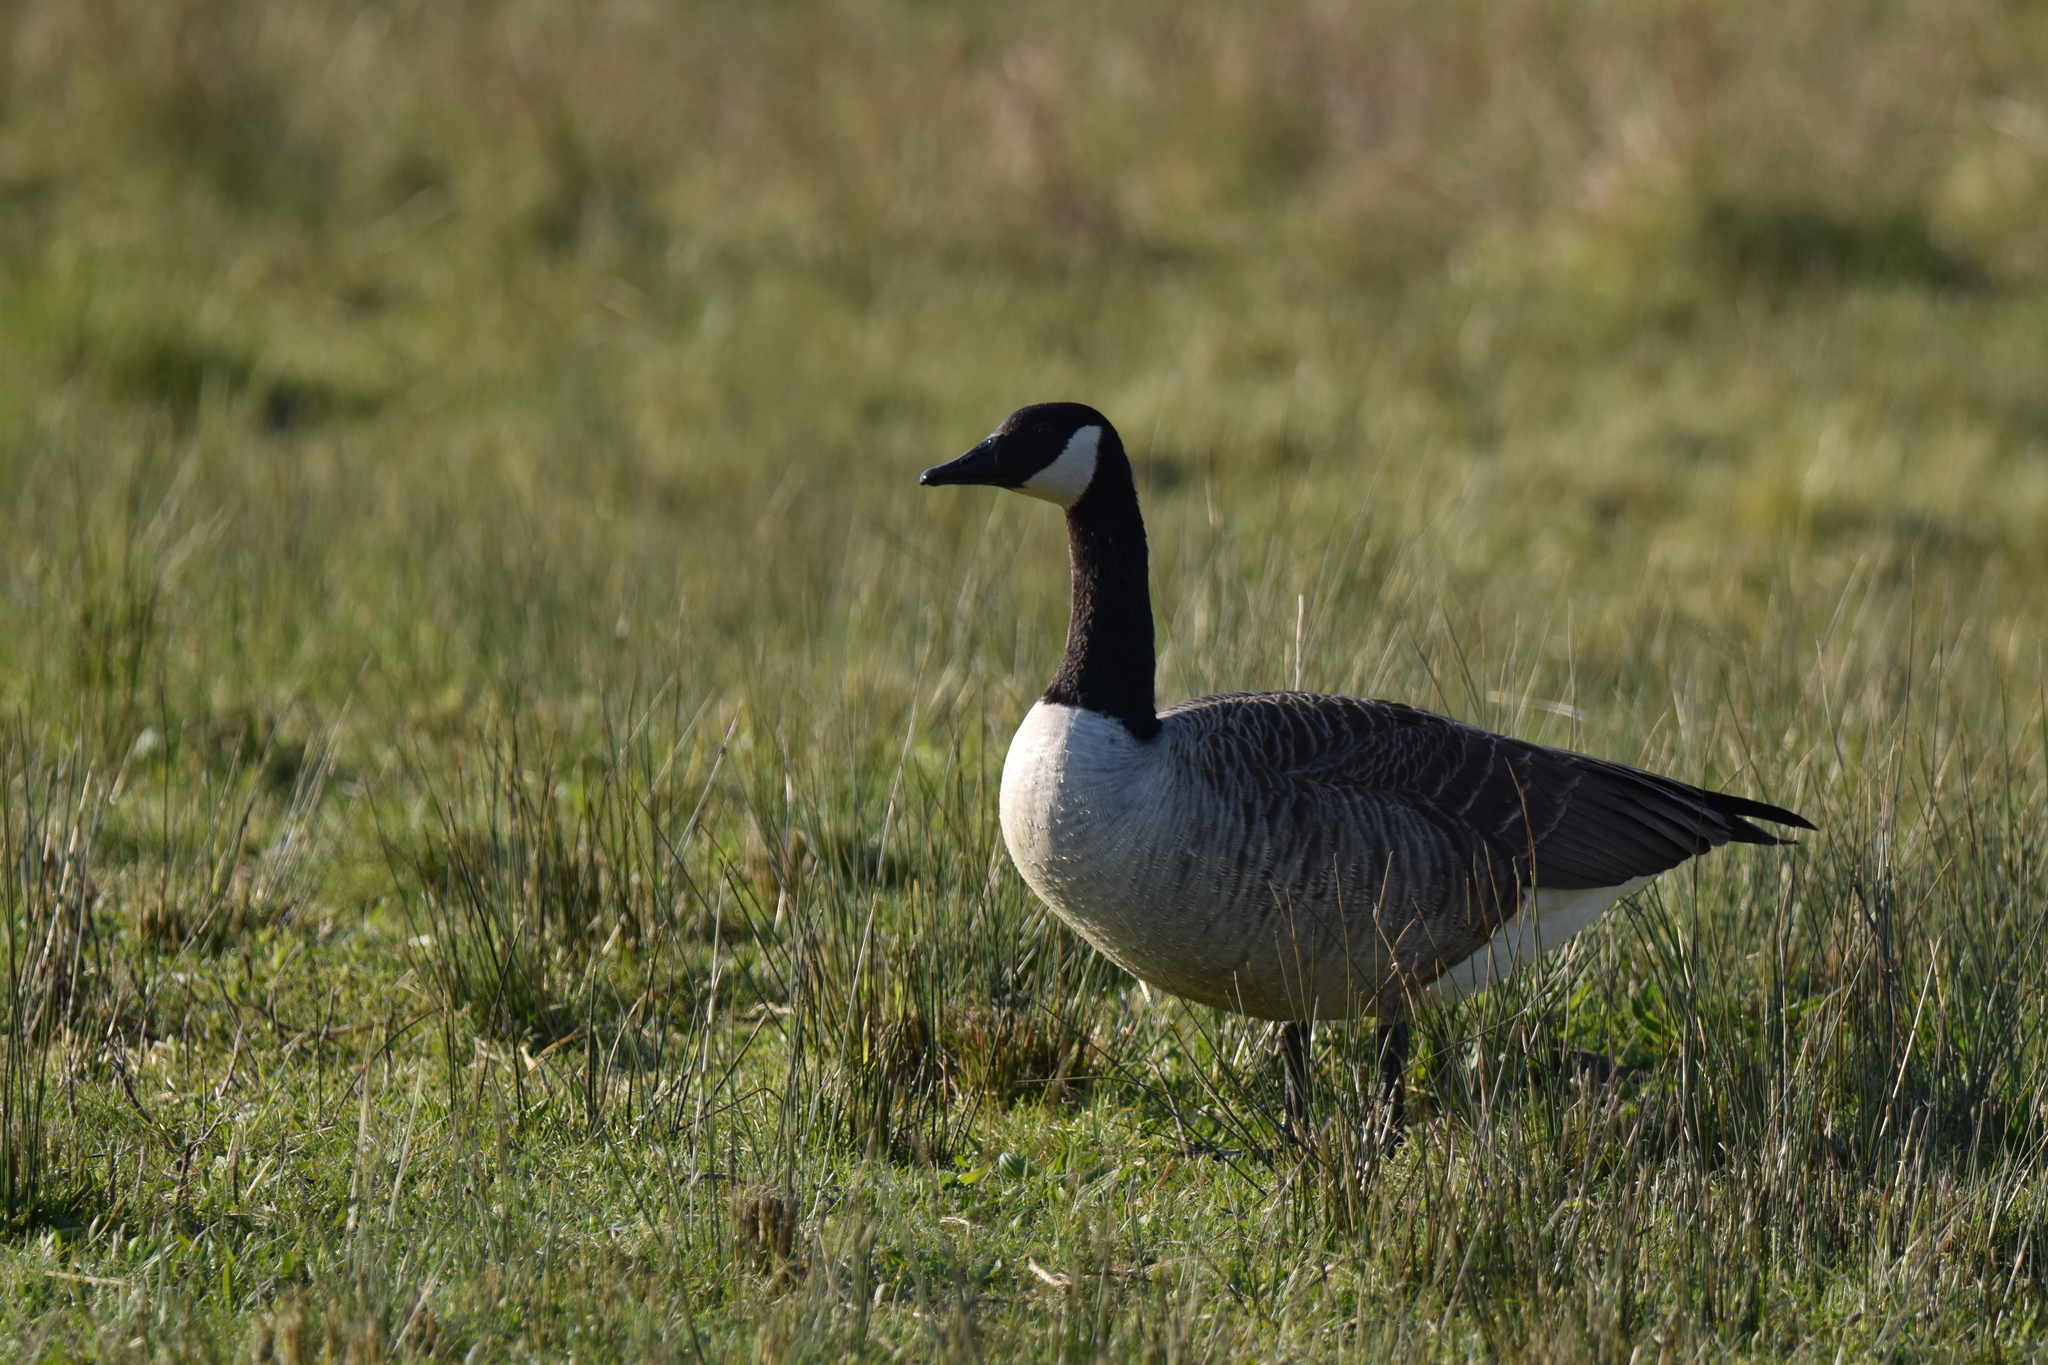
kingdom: Animalia
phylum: Chordata
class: Aves
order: Anseriformes
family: Anatidae
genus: Branta
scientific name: Branta canadensis
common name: Canada goose
